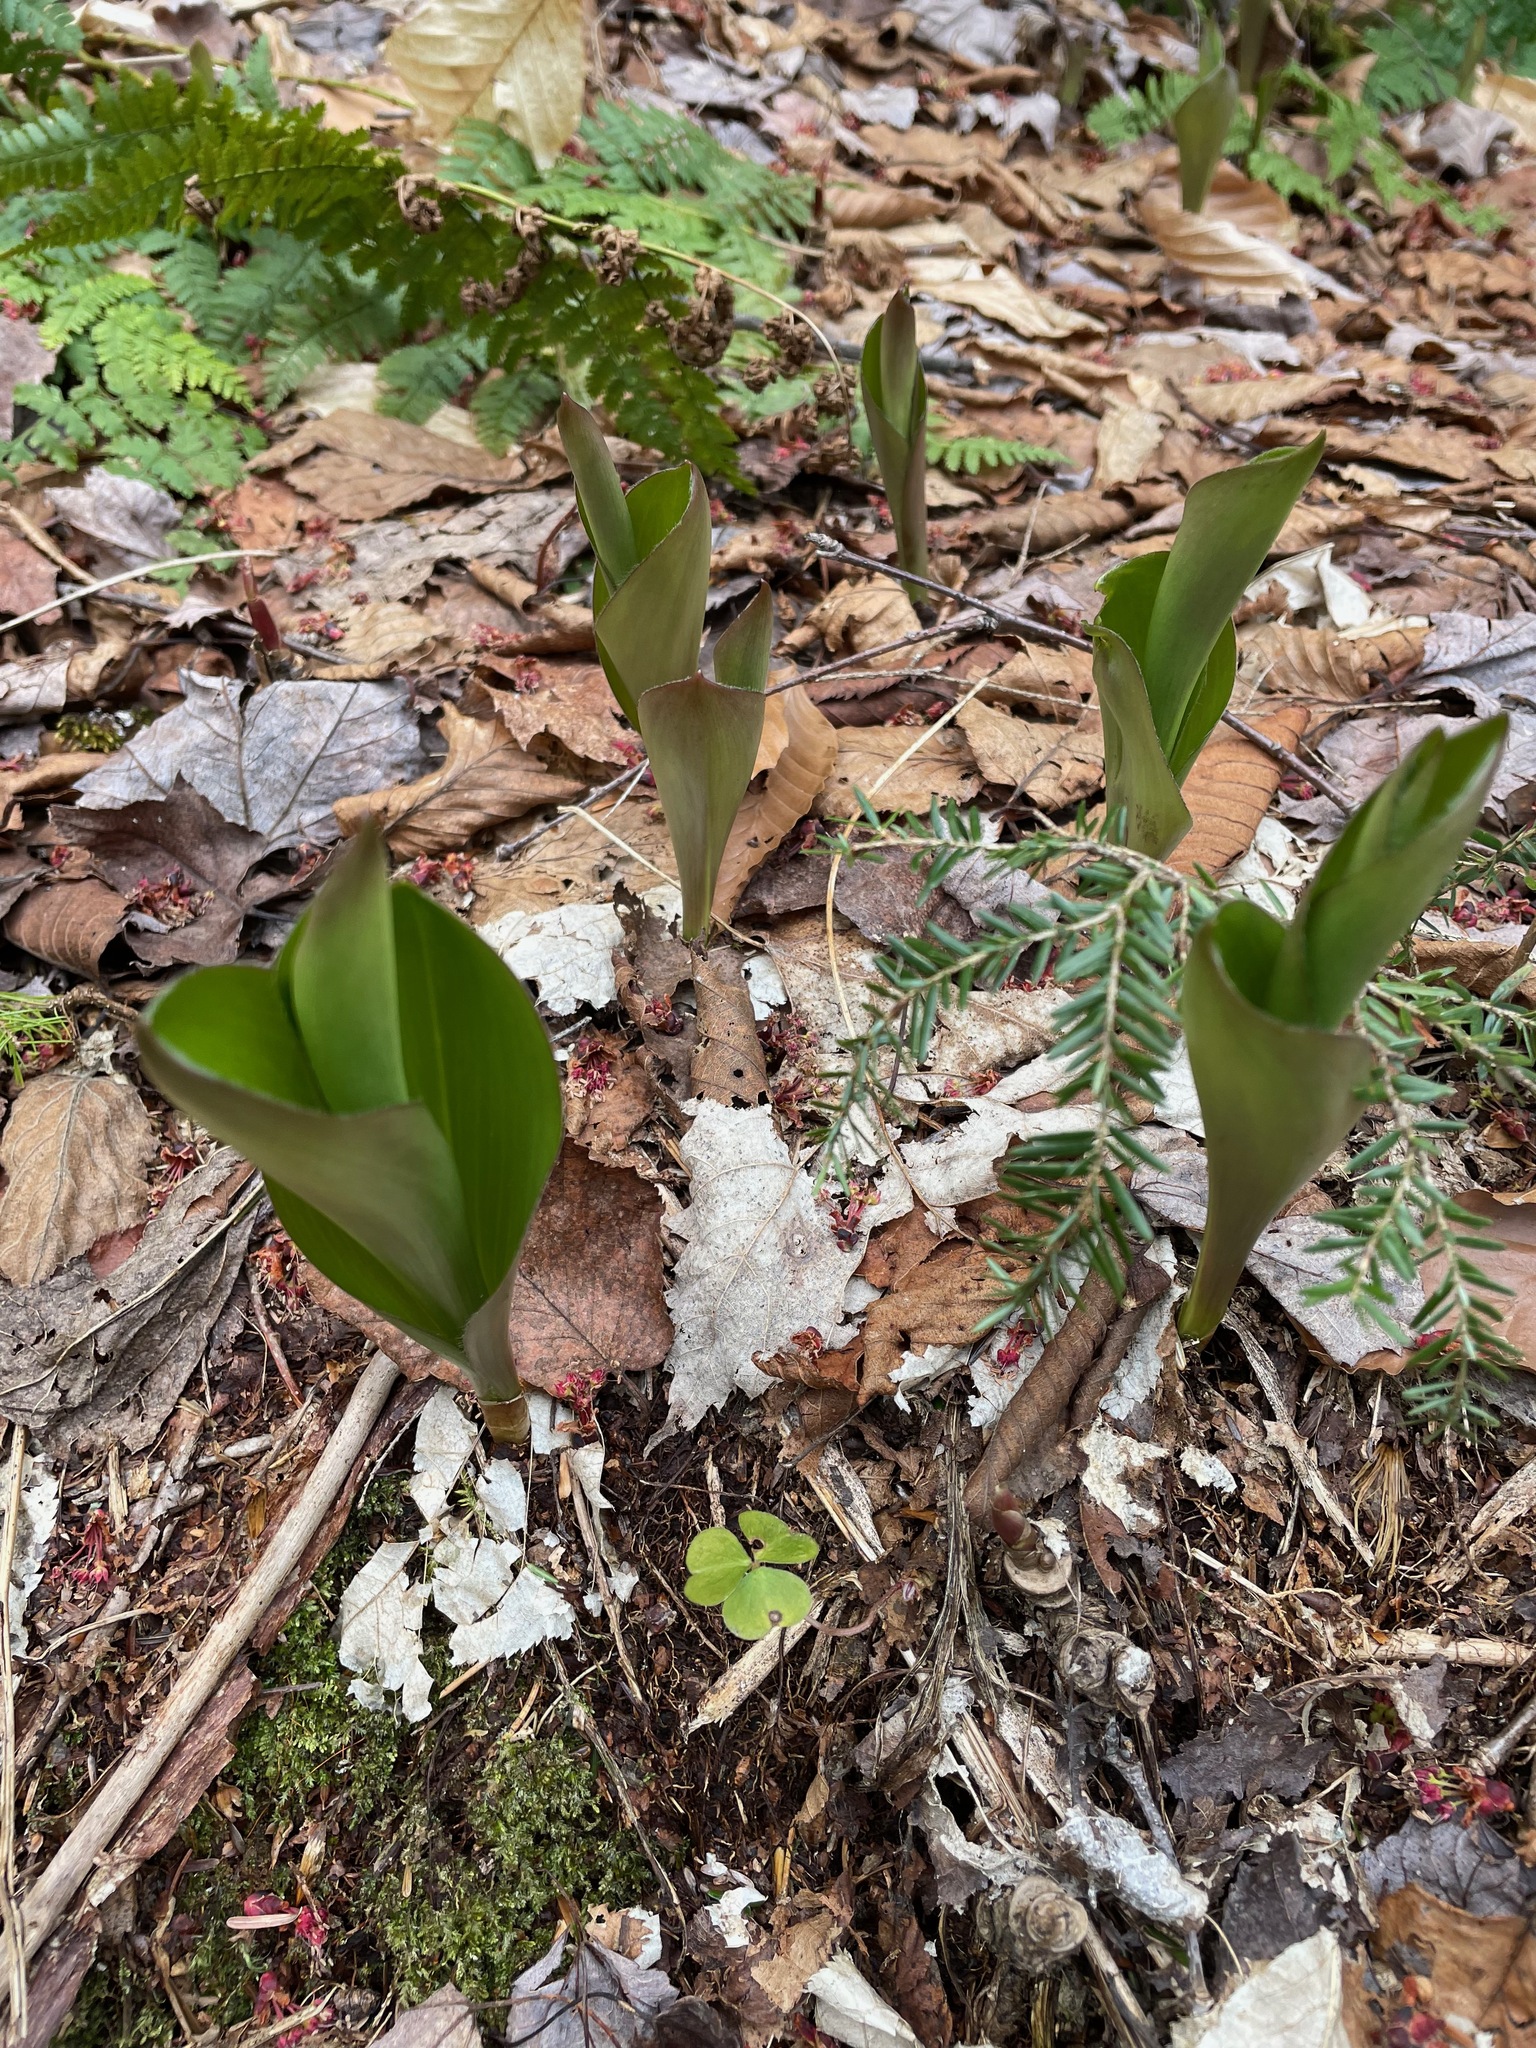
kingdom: Plantae
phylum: Tracheophyta
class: Liliopsida
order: Liliales
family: Liliaceae
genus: Clintonia
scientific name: Clintonia borealis
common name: Yellow clintonia
